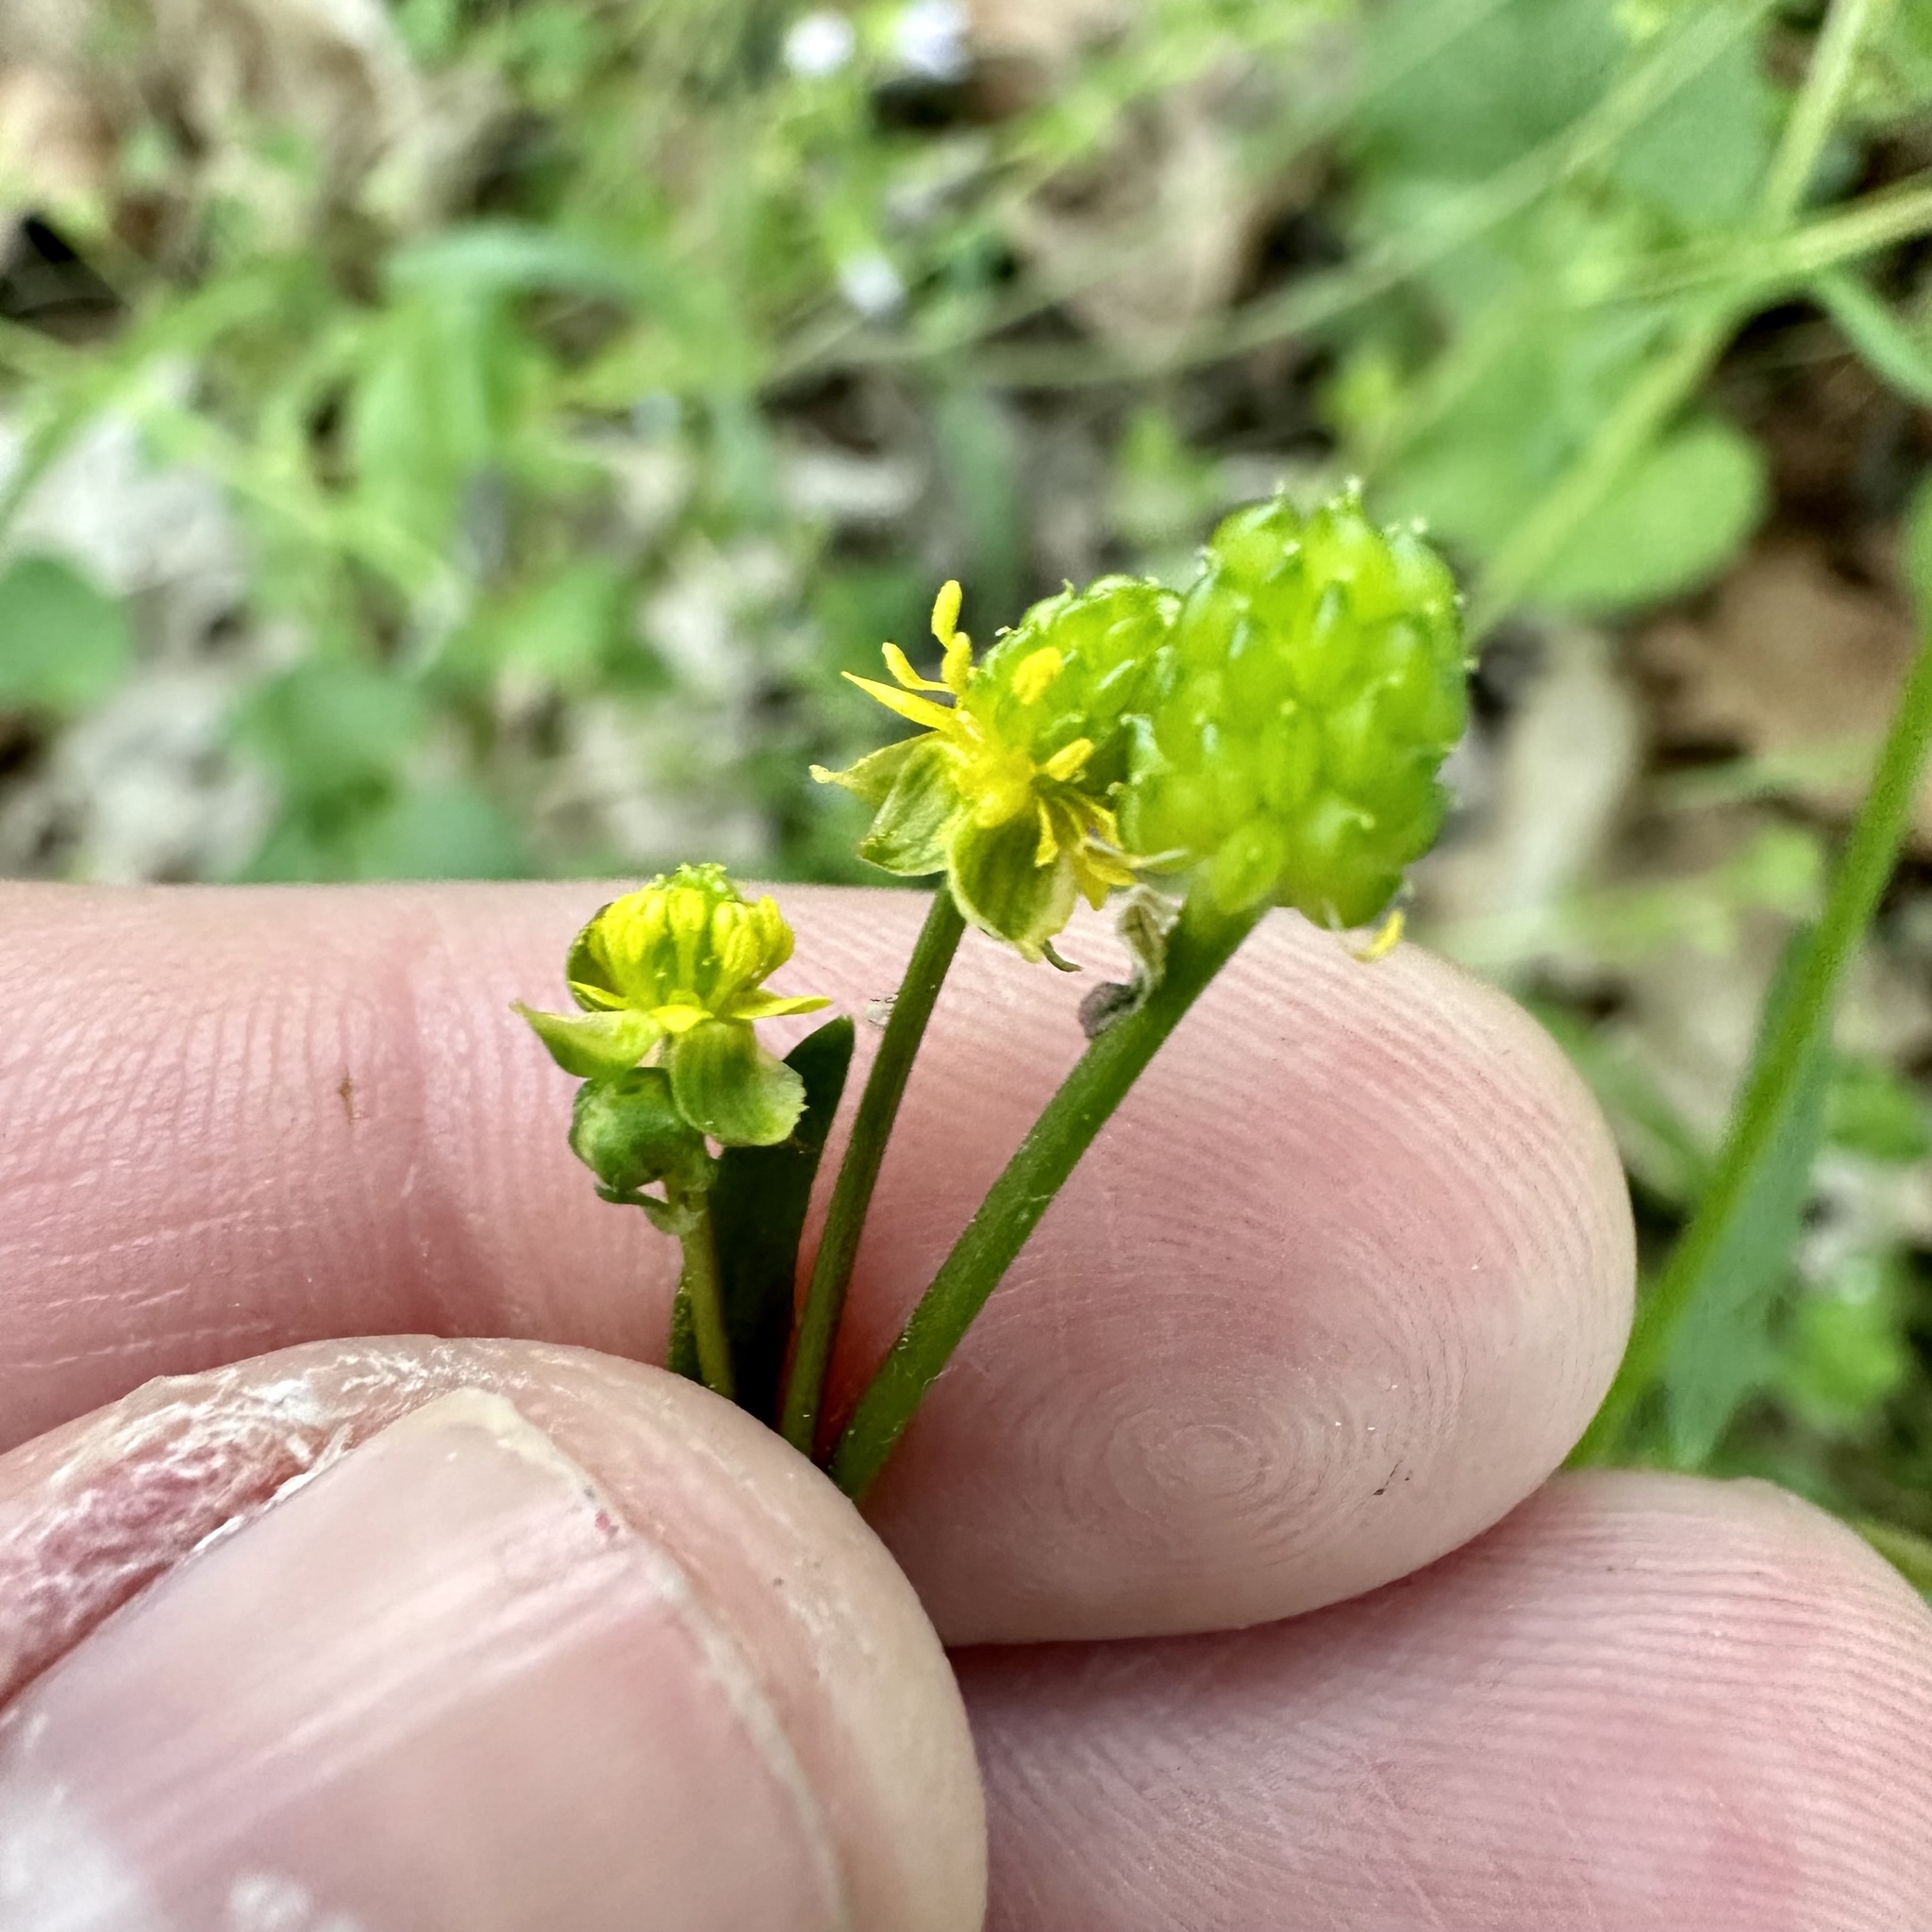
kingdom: Plantae
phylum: Tracheophyta
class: Magnoliopsida
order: Ranunculales
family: Ranunculaceae
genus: Ranunculus
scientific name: Ranunculus abortivus
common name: Early wood buttercup
